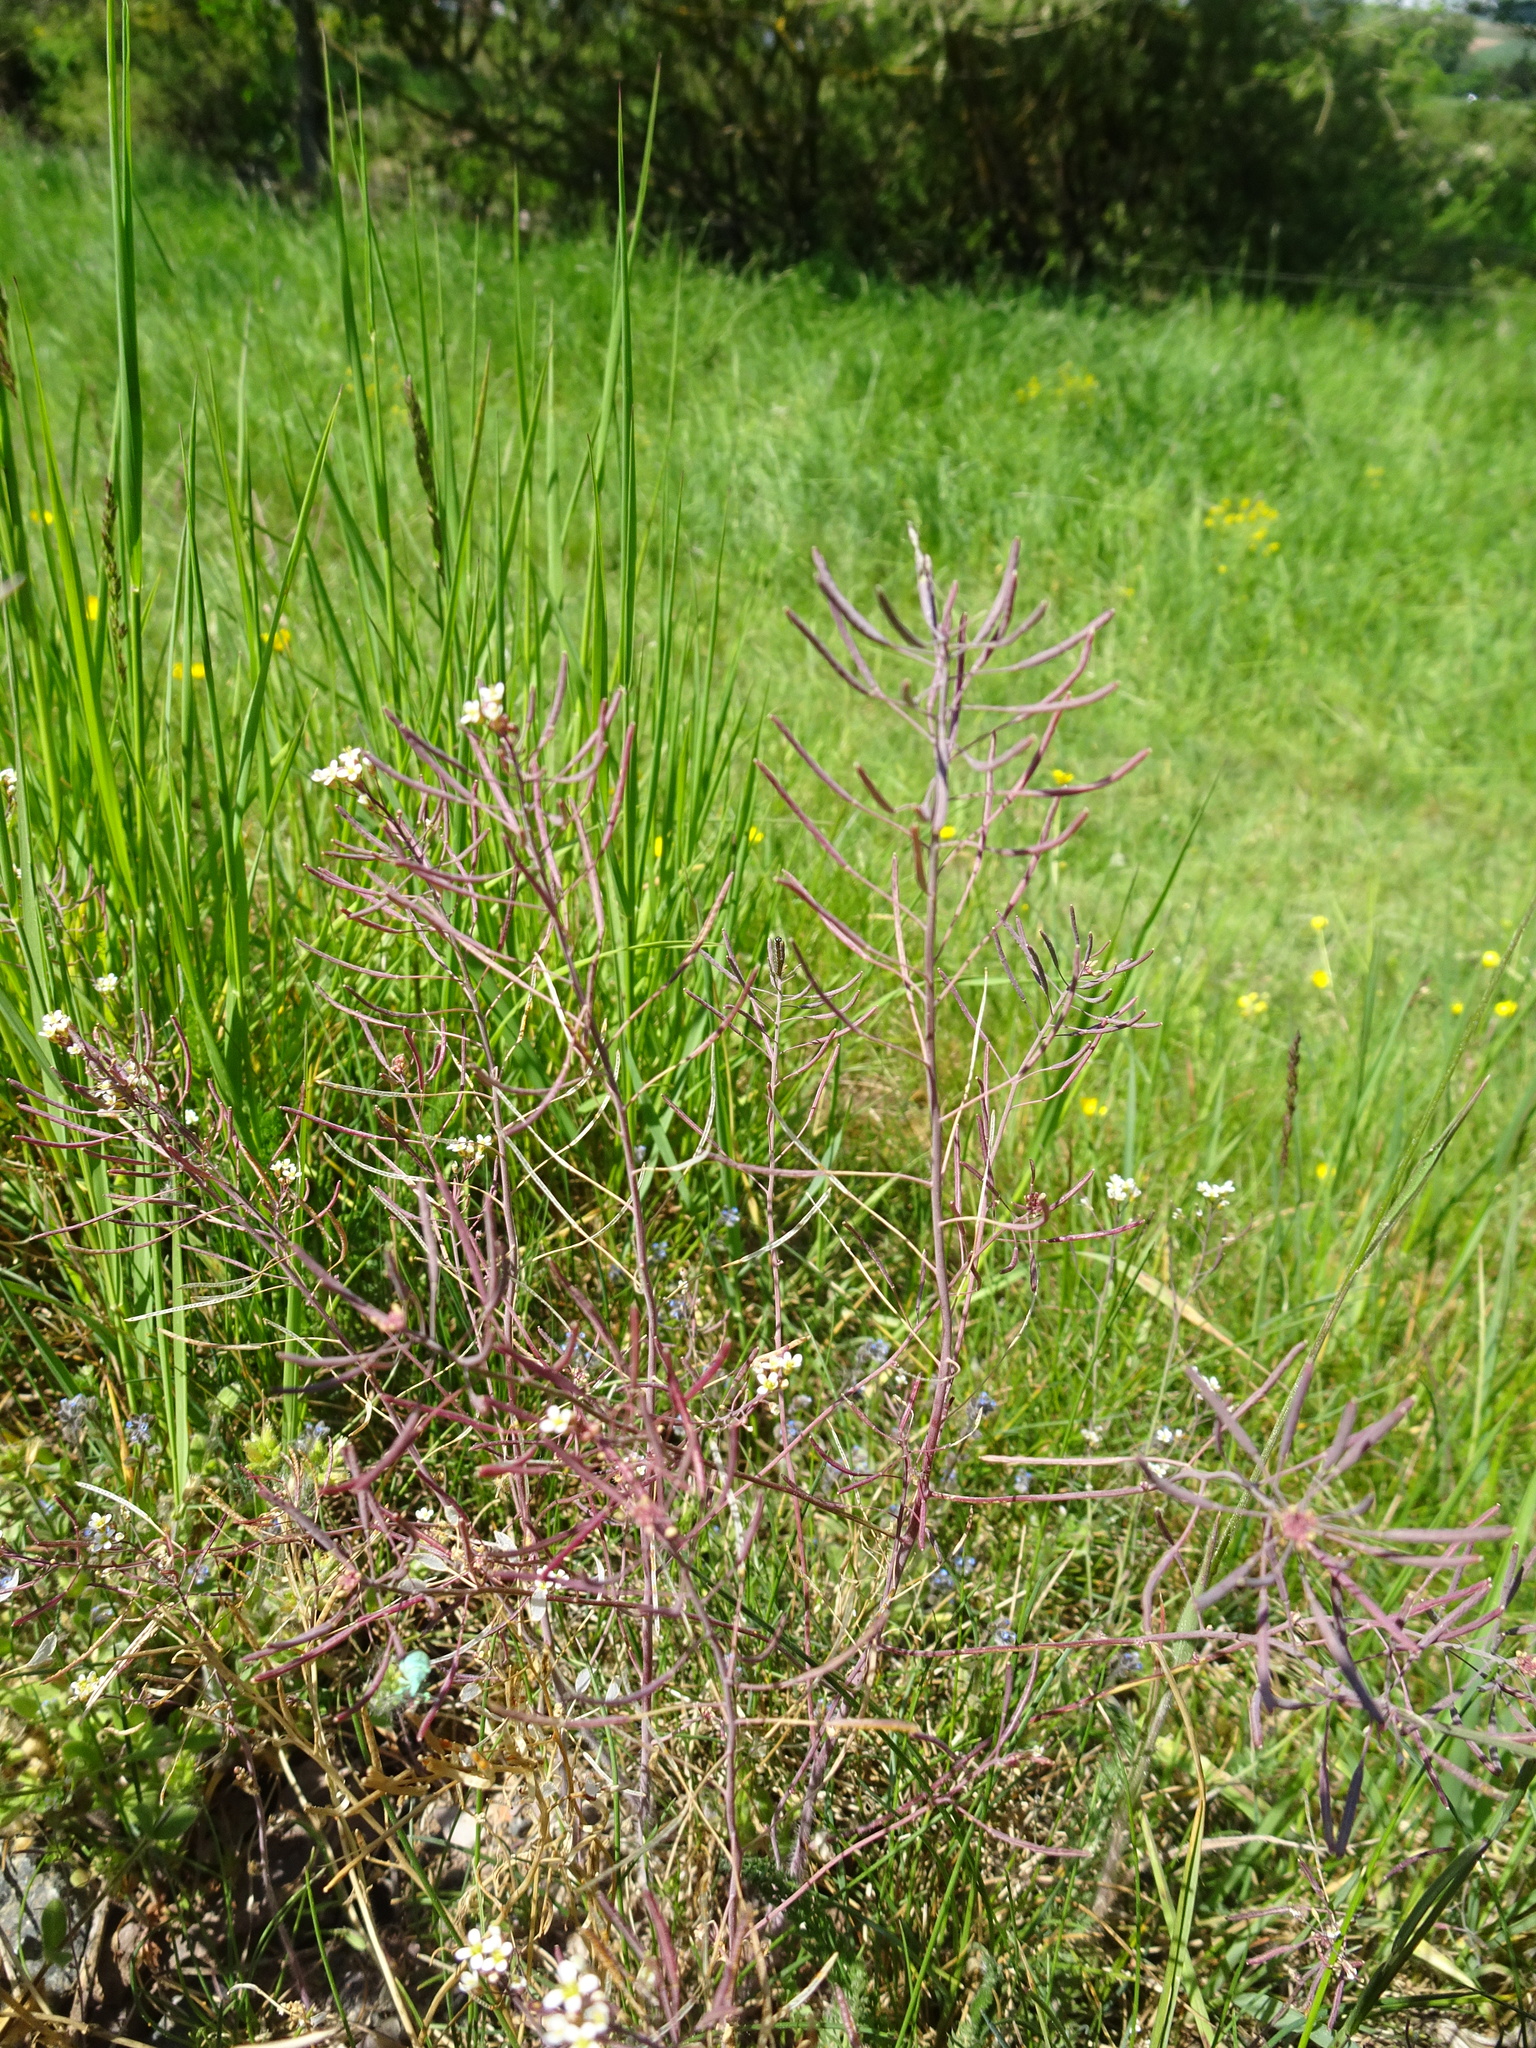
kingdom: Plantae
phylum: Tracheophyta
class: Magnoliopsida
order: Brassicales
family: Brassicaceae
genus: Arabidopsis
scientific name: Arabidopsis thaliana
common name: Thale cress
